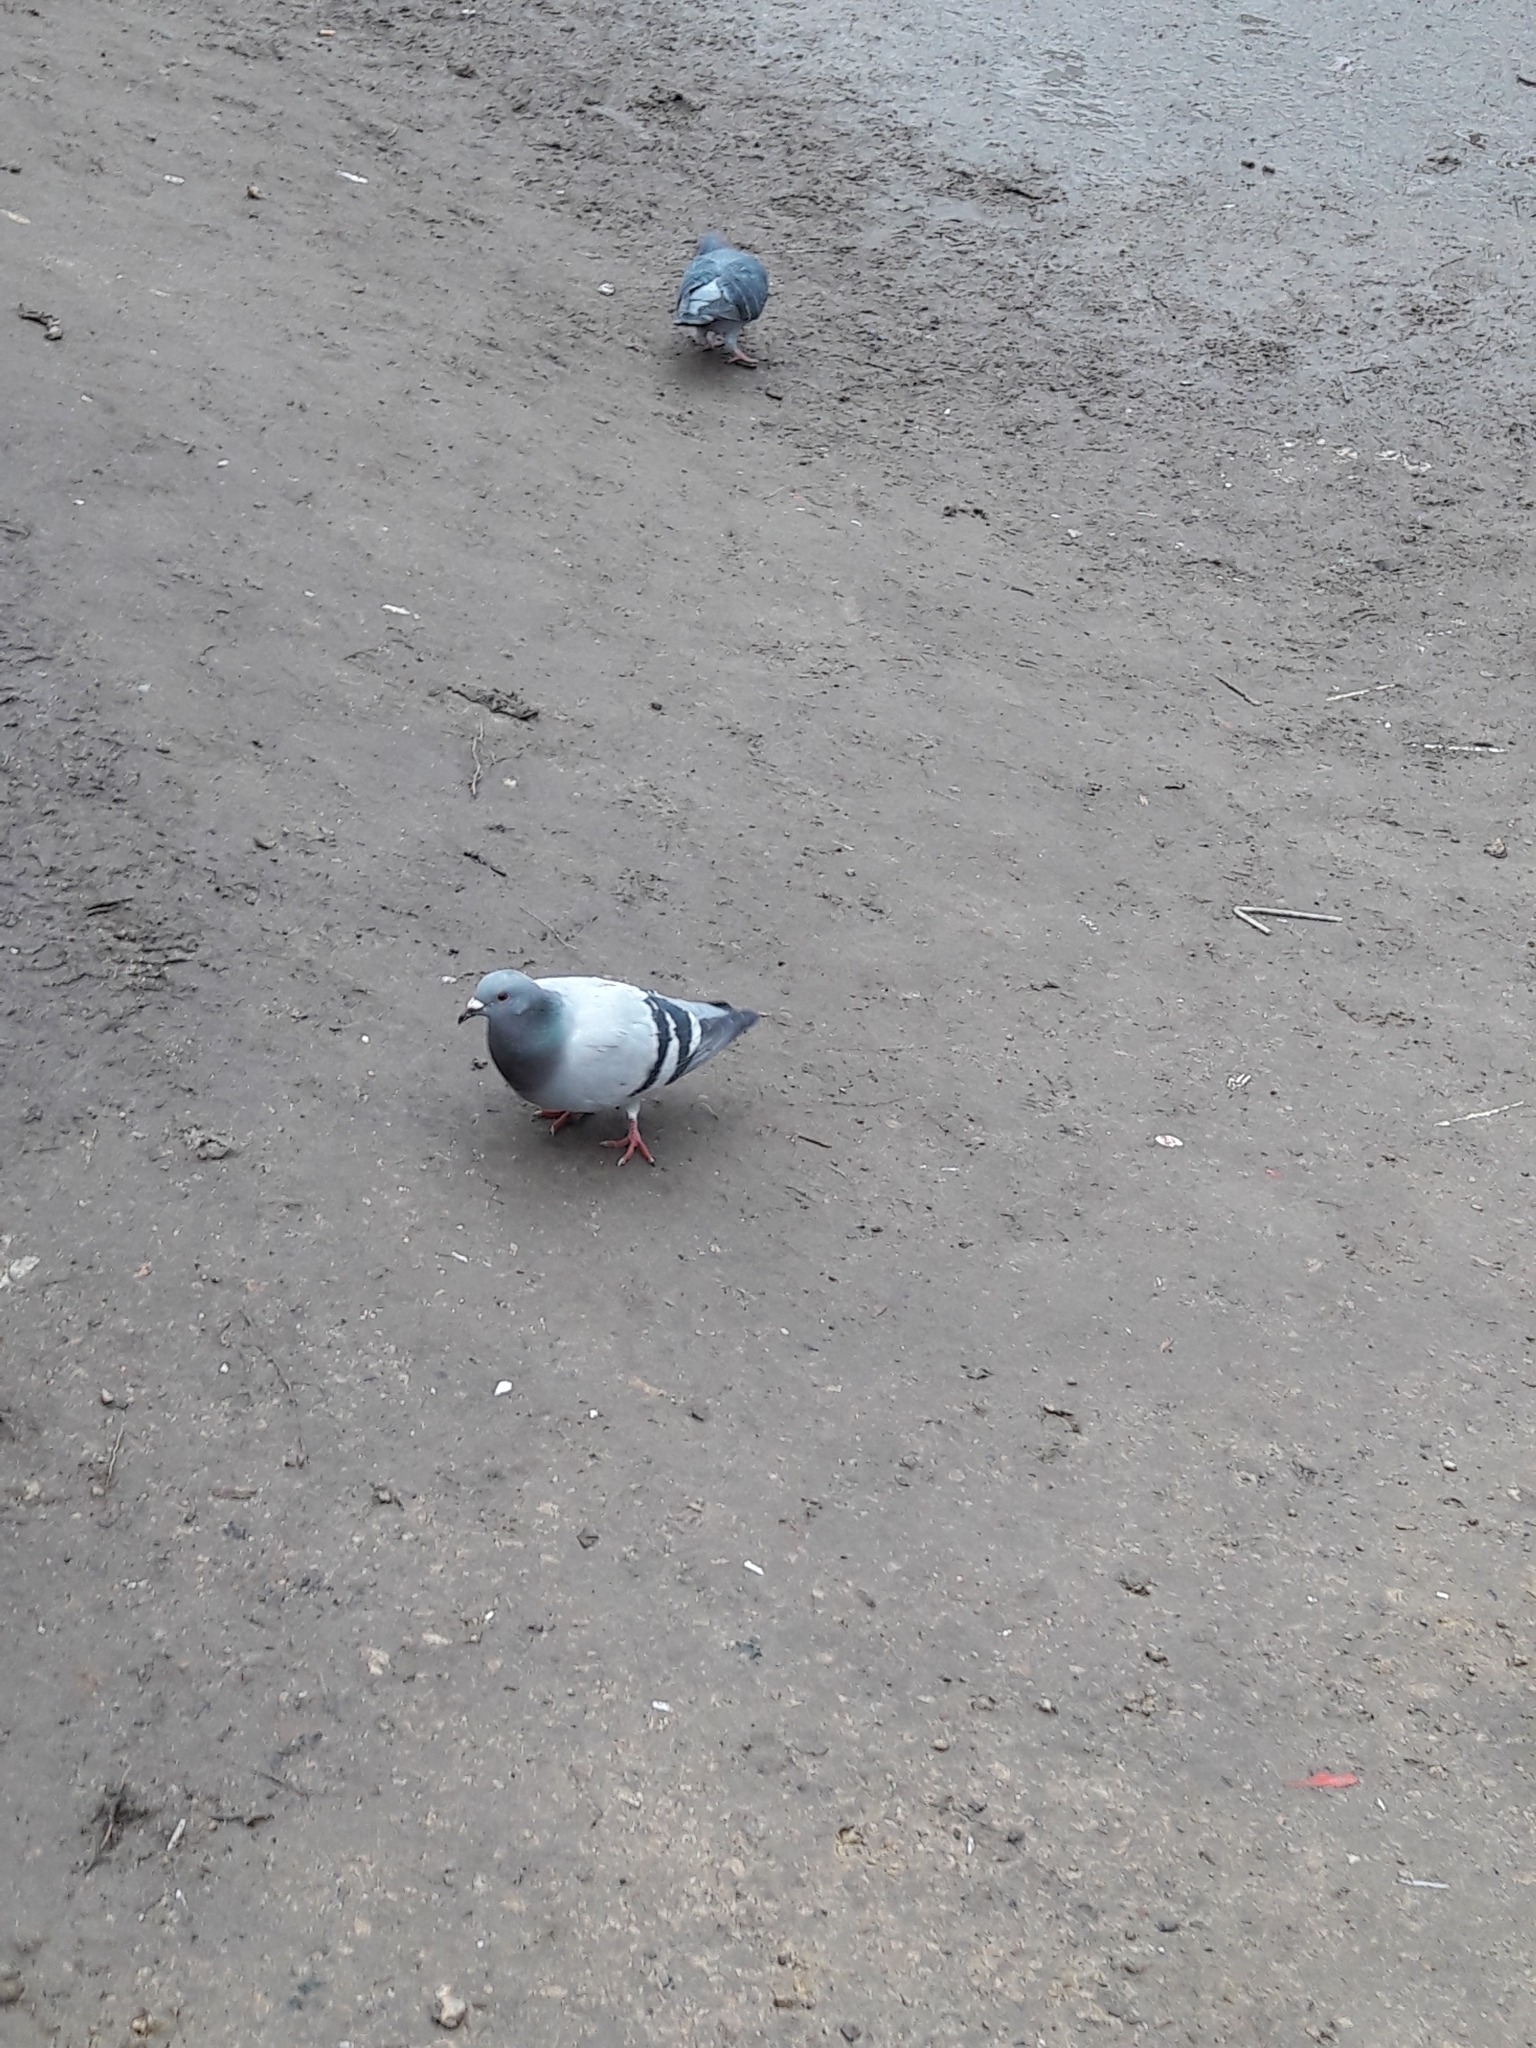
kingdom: Animalia
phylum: Chordata
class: Aves
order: Columbiformes
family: Columbidae
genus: Columba
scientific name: Columba livia
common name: Rock pigeon
